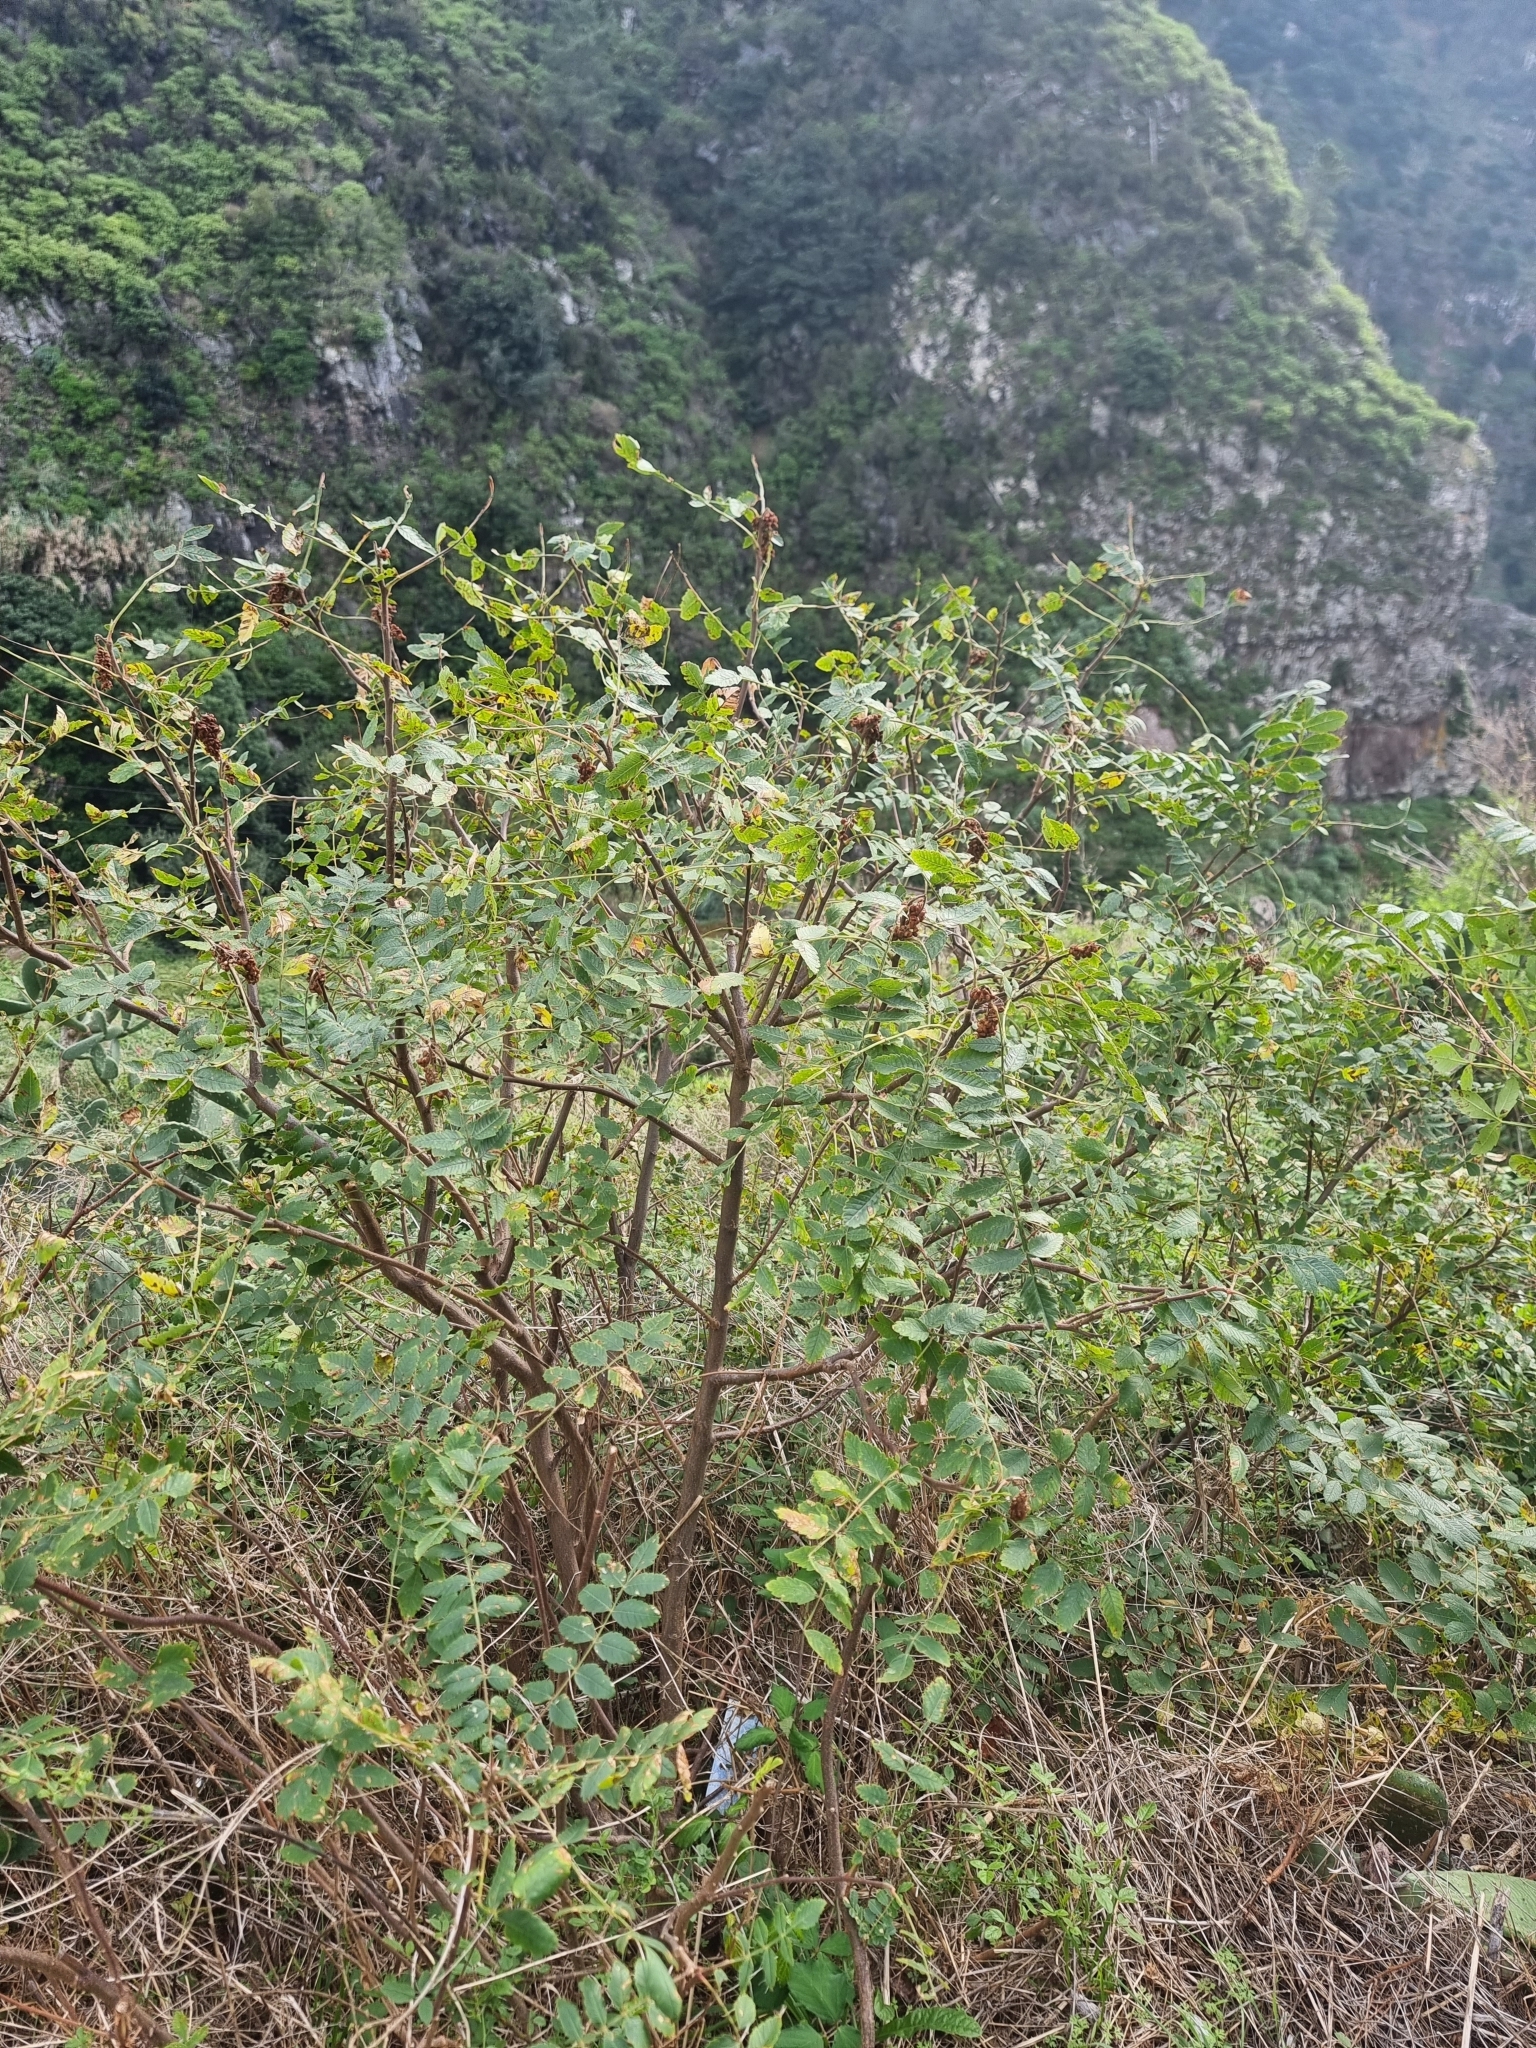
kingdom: Plantae
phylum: Tracheophyta
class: Magnoliopsida
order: Sapindales
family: Anacardiaceae
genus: Rhus
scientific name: Rhus coriaria
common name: Tanner's sumach
